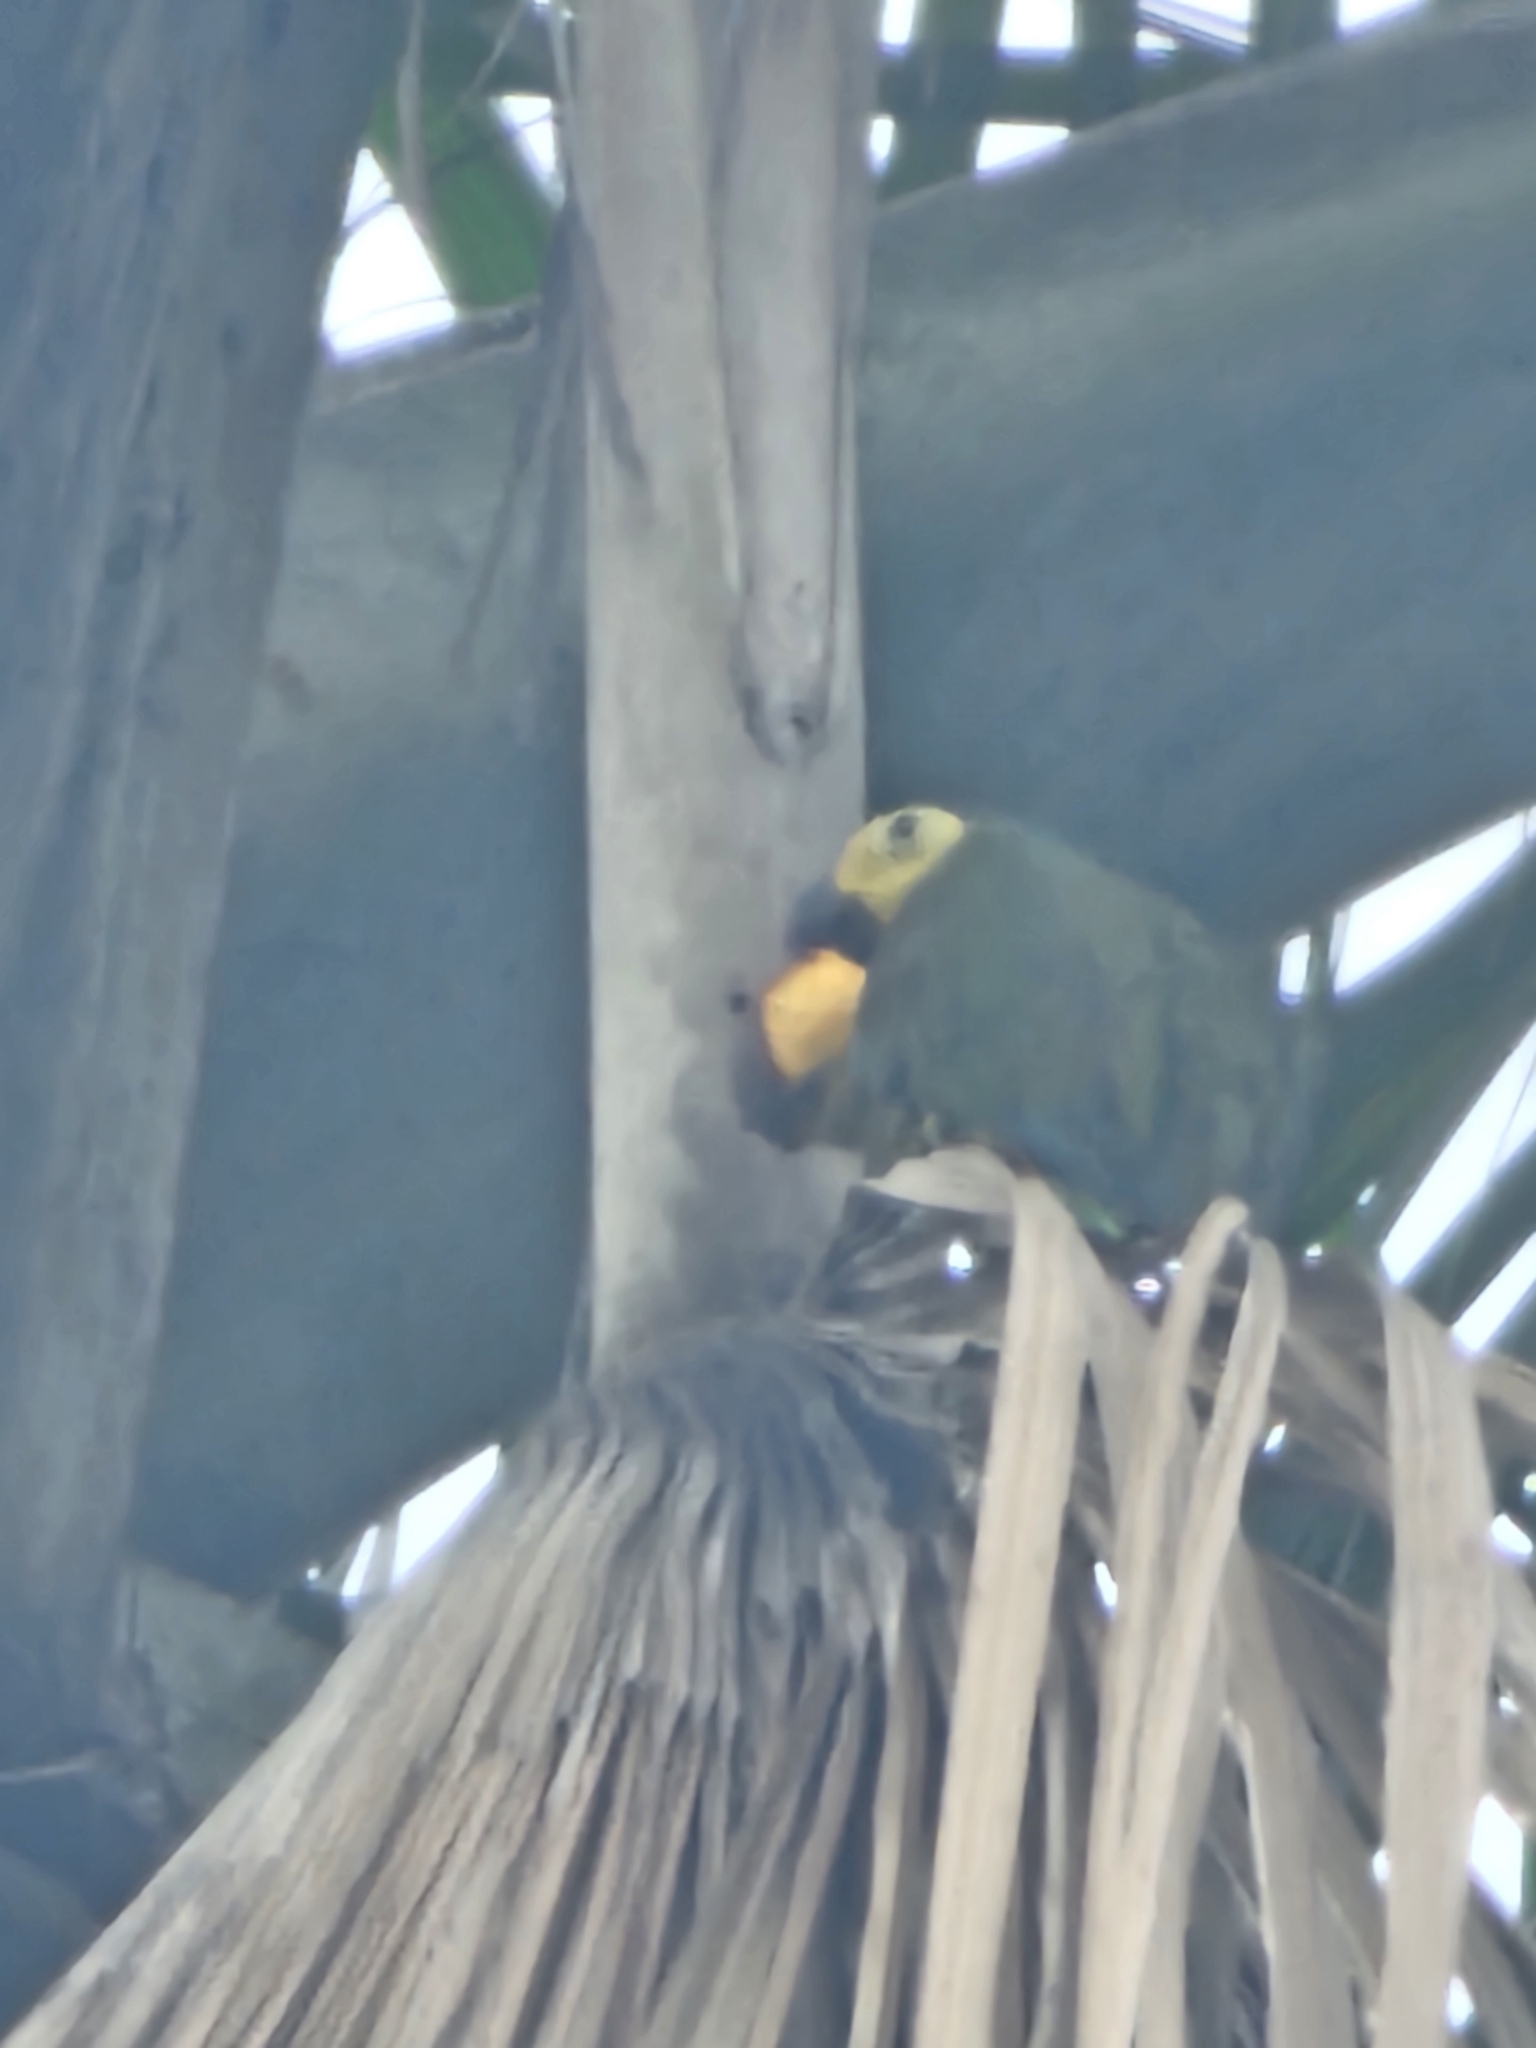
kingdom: Animalia
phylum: Chordata
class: Aves
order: Psittaciformes
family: Psittacidae
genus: Orthopsittaca
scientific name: Orthopsittaca manilata
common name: Red-bellied macaw
